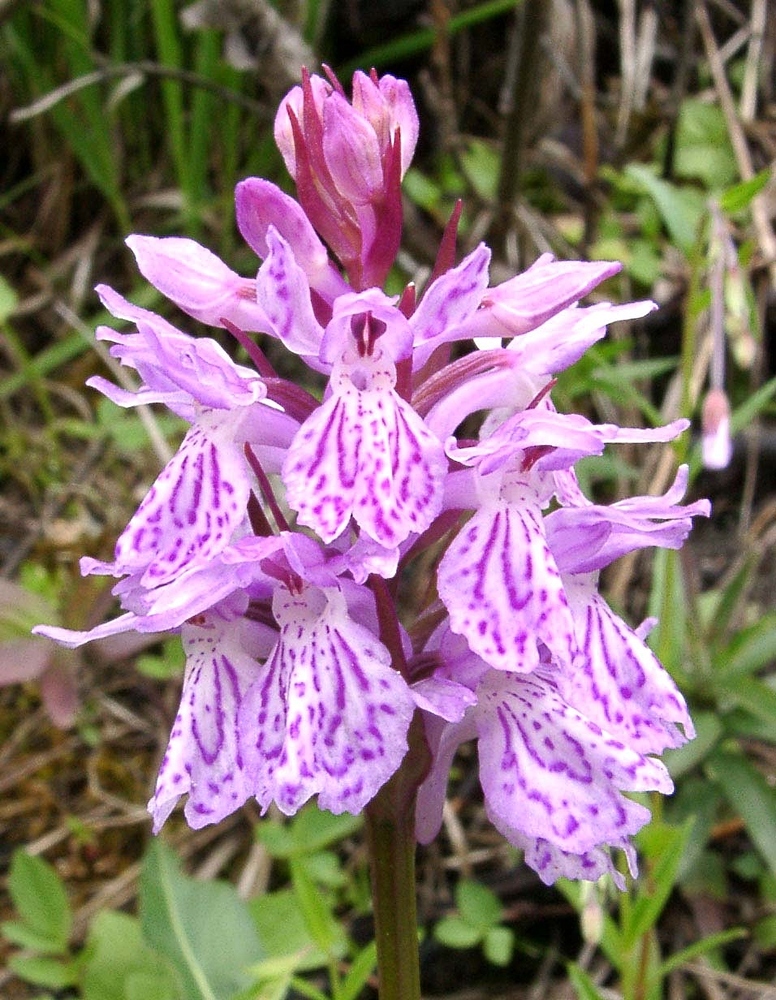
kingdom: Plantae
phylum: Tracheophyta
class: Liliopsida
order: Asparagales
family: Orchidaceae
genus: Dactylorhiza
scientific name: Dactylorhiza maculata
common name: Heath spotted-orchid
